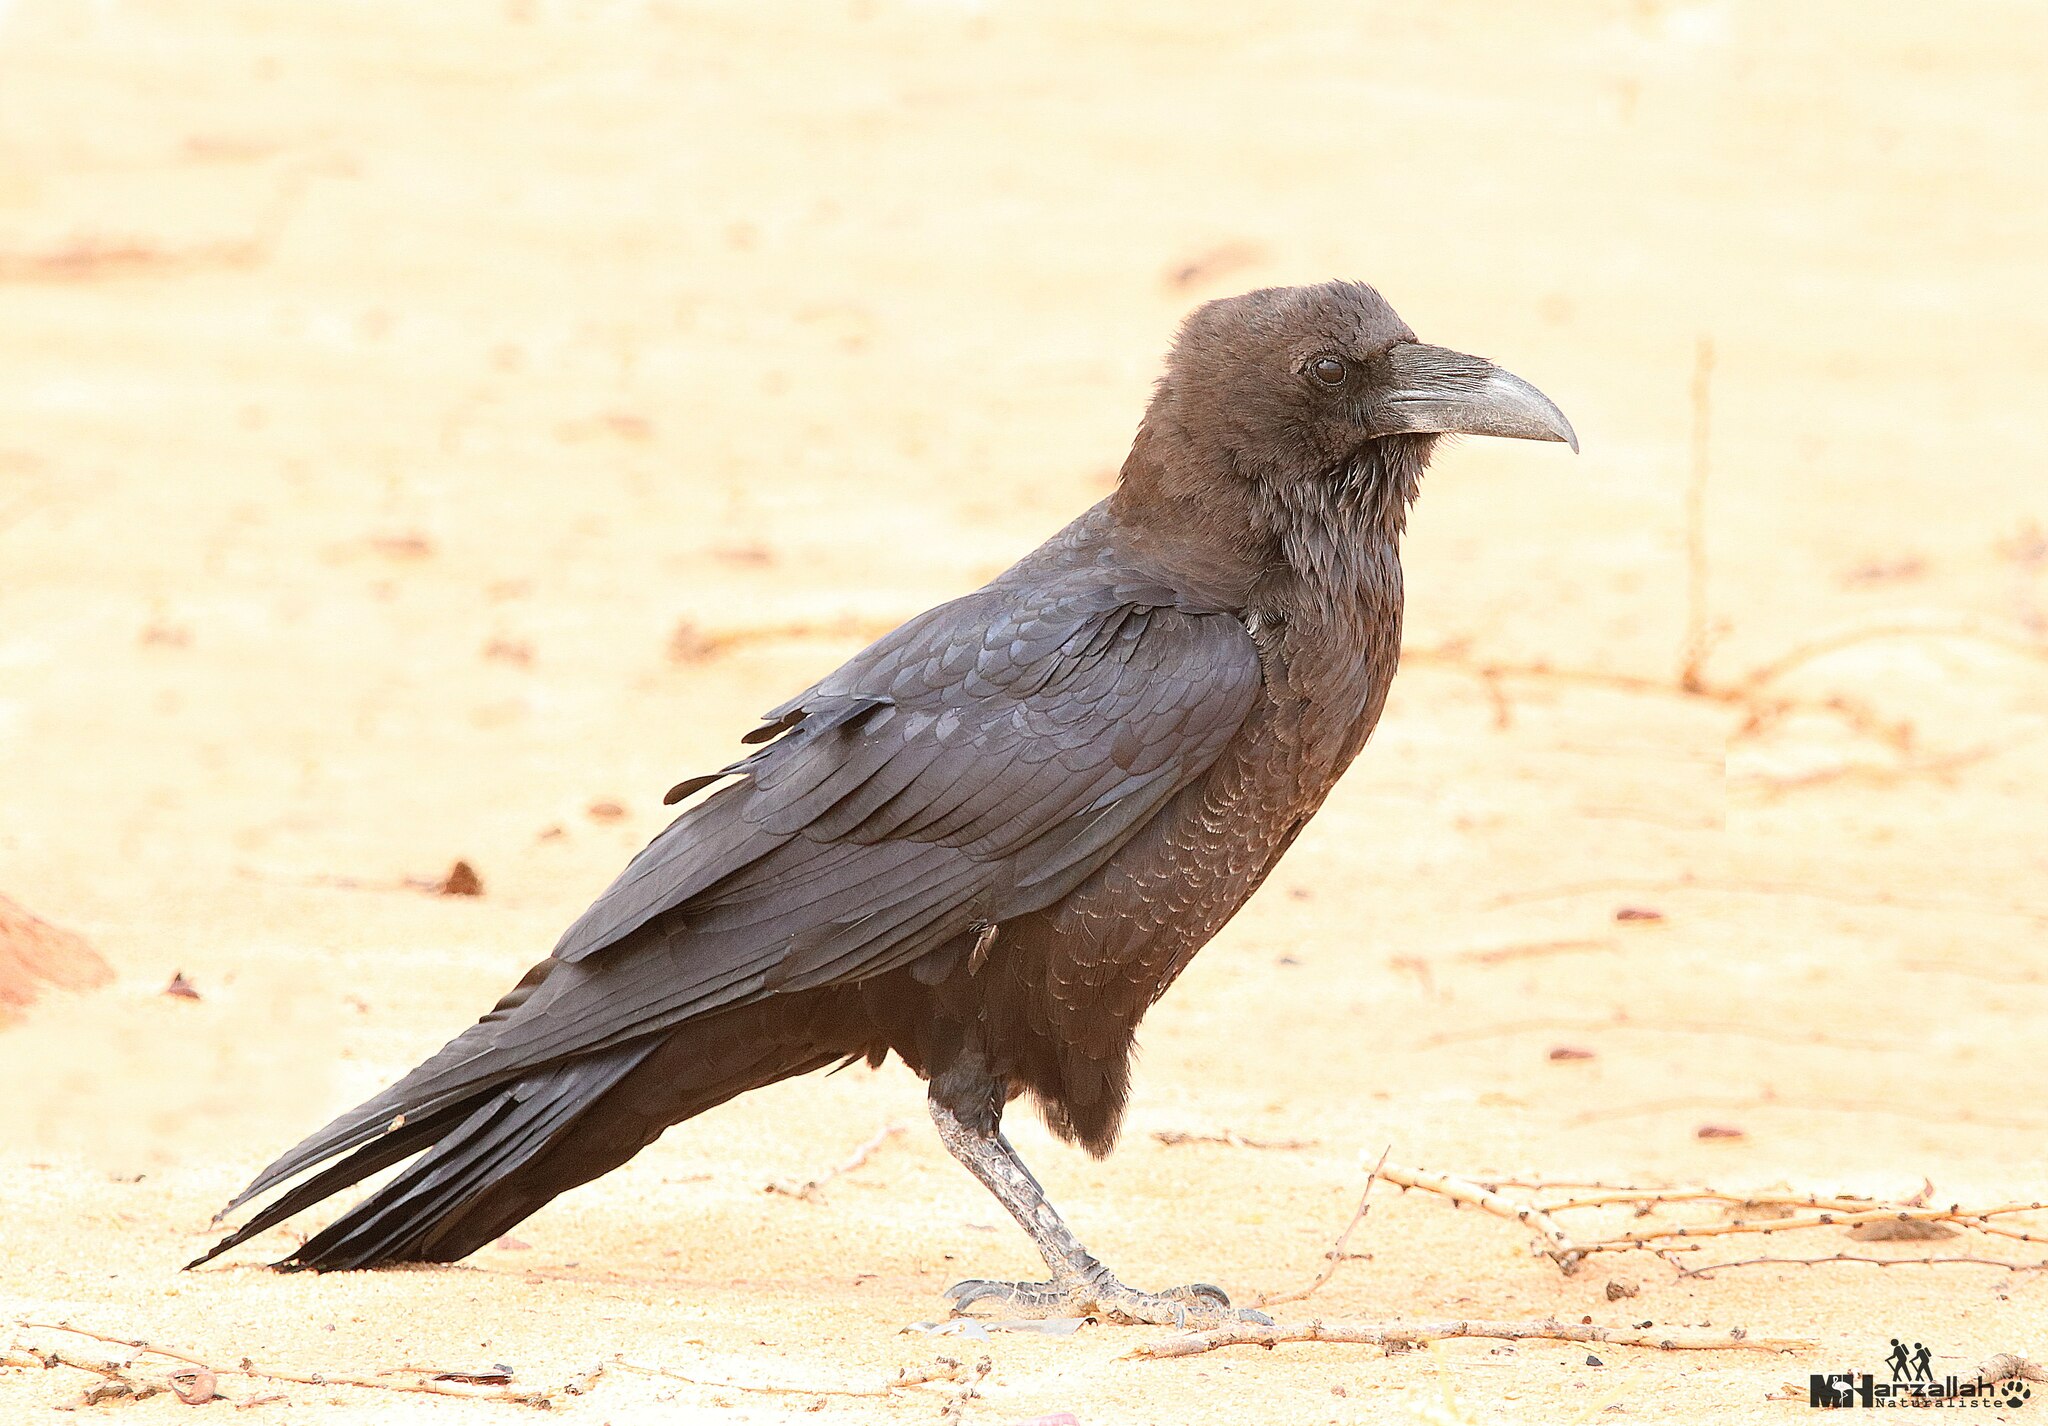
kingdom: Animalia
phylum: Chordata
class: Aves
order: Passeriformes
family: Corvidae
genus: Corvus
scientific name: Corvus ruficollis
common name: Brown-necked raven
